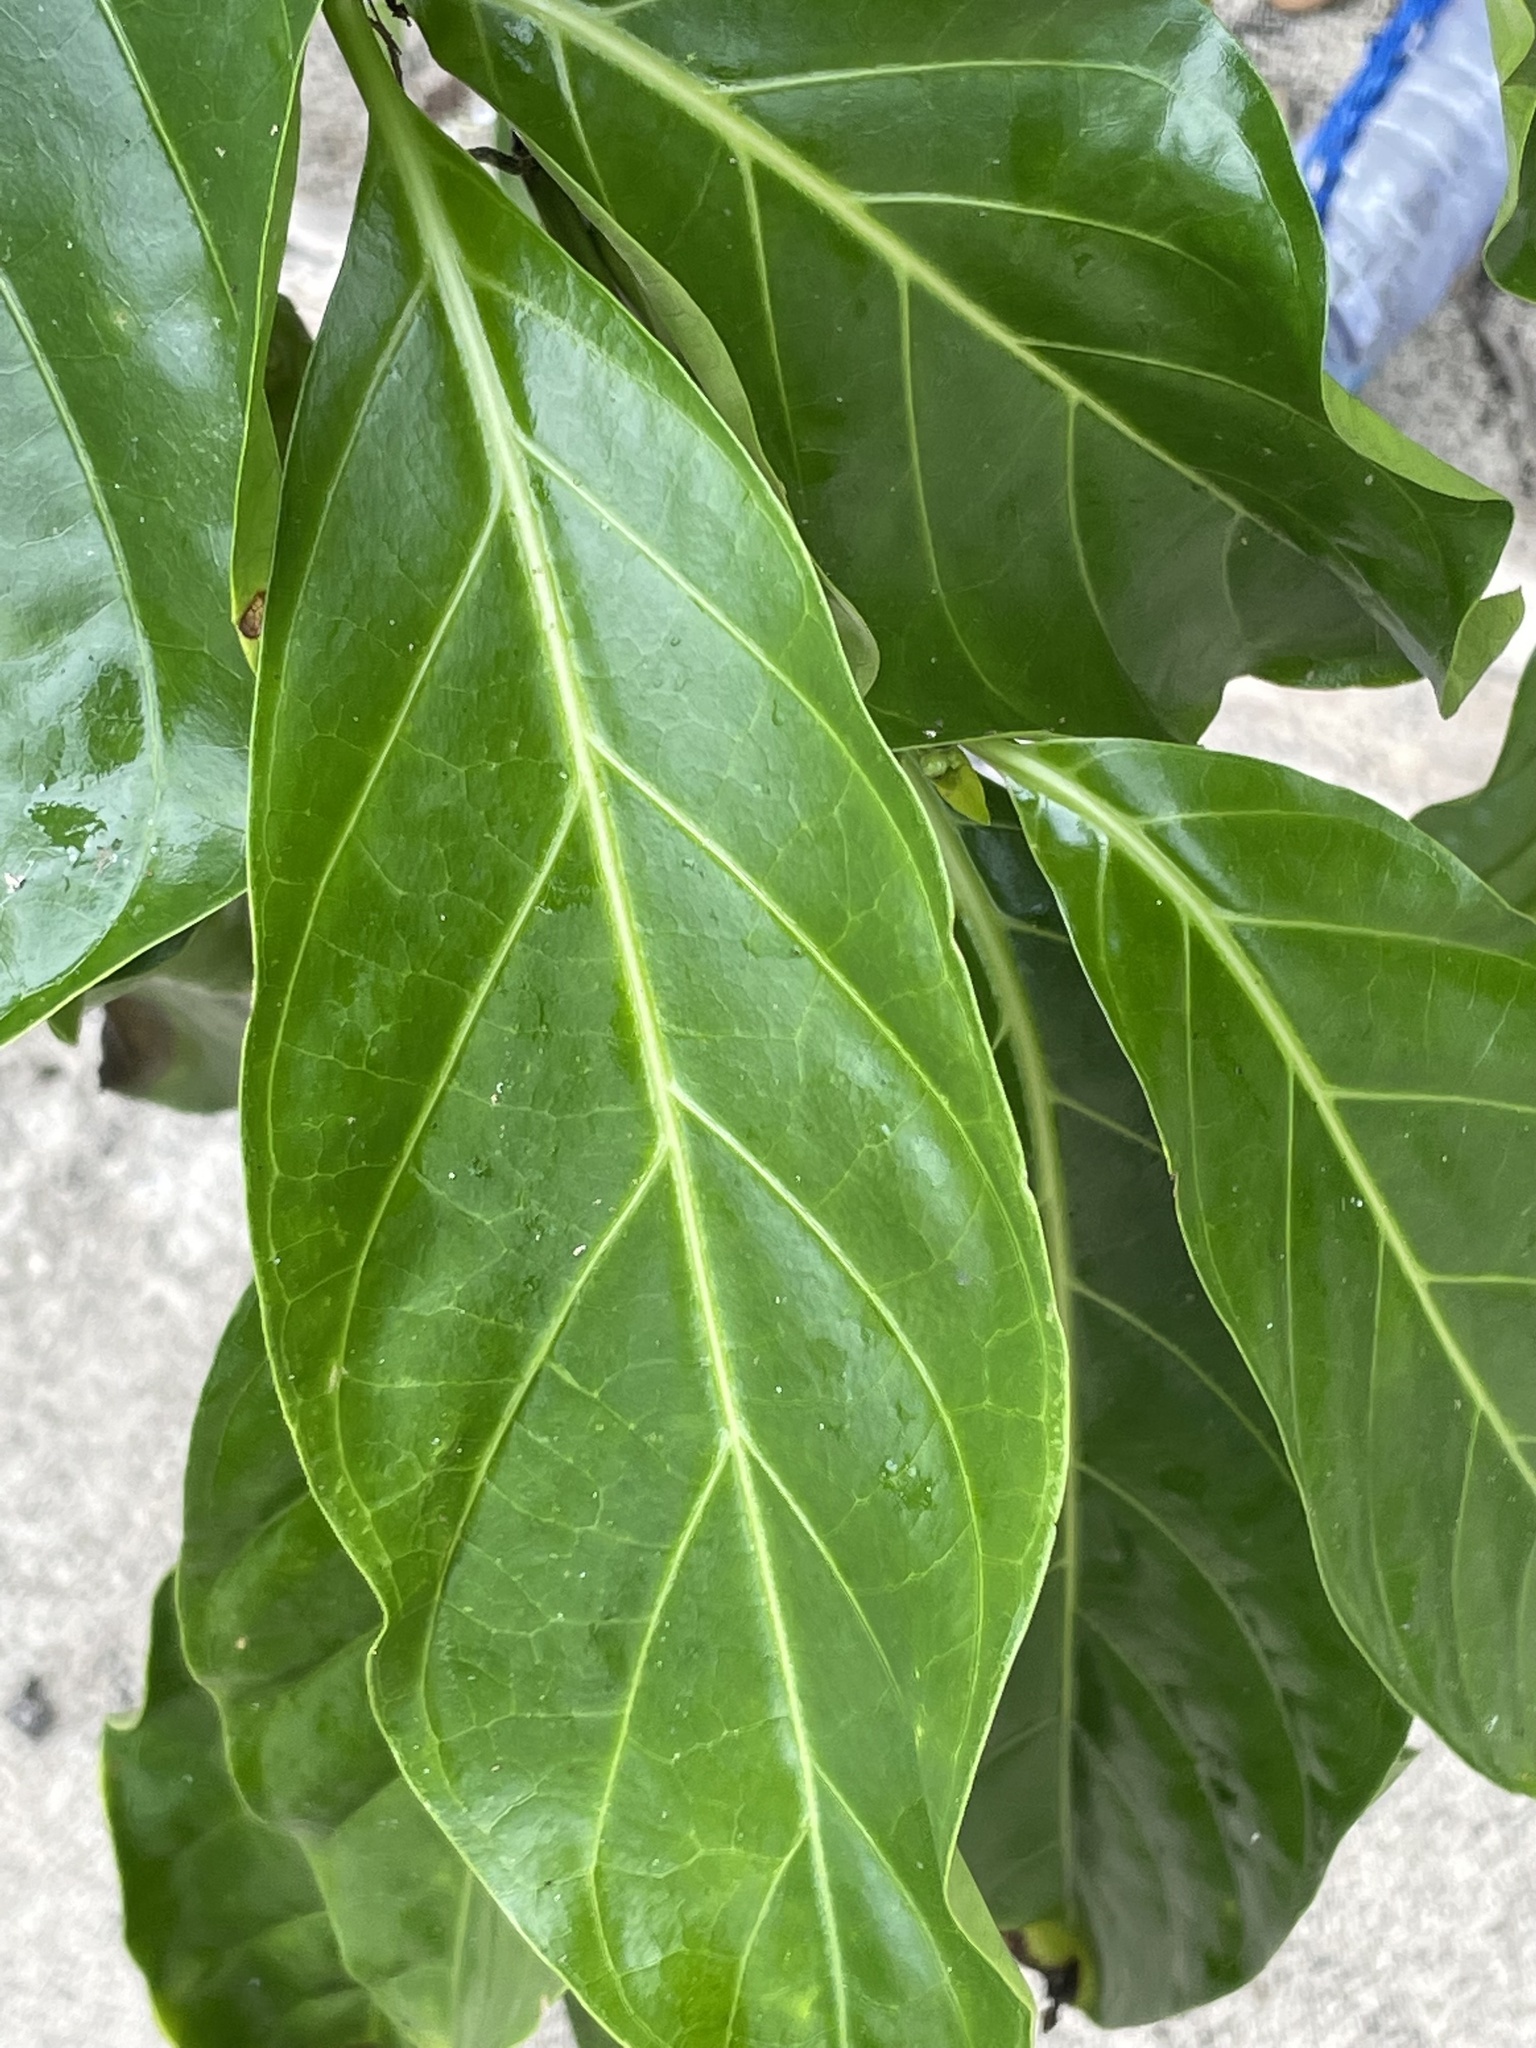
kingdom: Plantae
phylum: Tracheophyta
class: Magnoliopsida
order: Gentianales
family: Rubiaceae
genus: Morinda
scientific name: Morinda citrifolia
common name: Indian-mulberry
